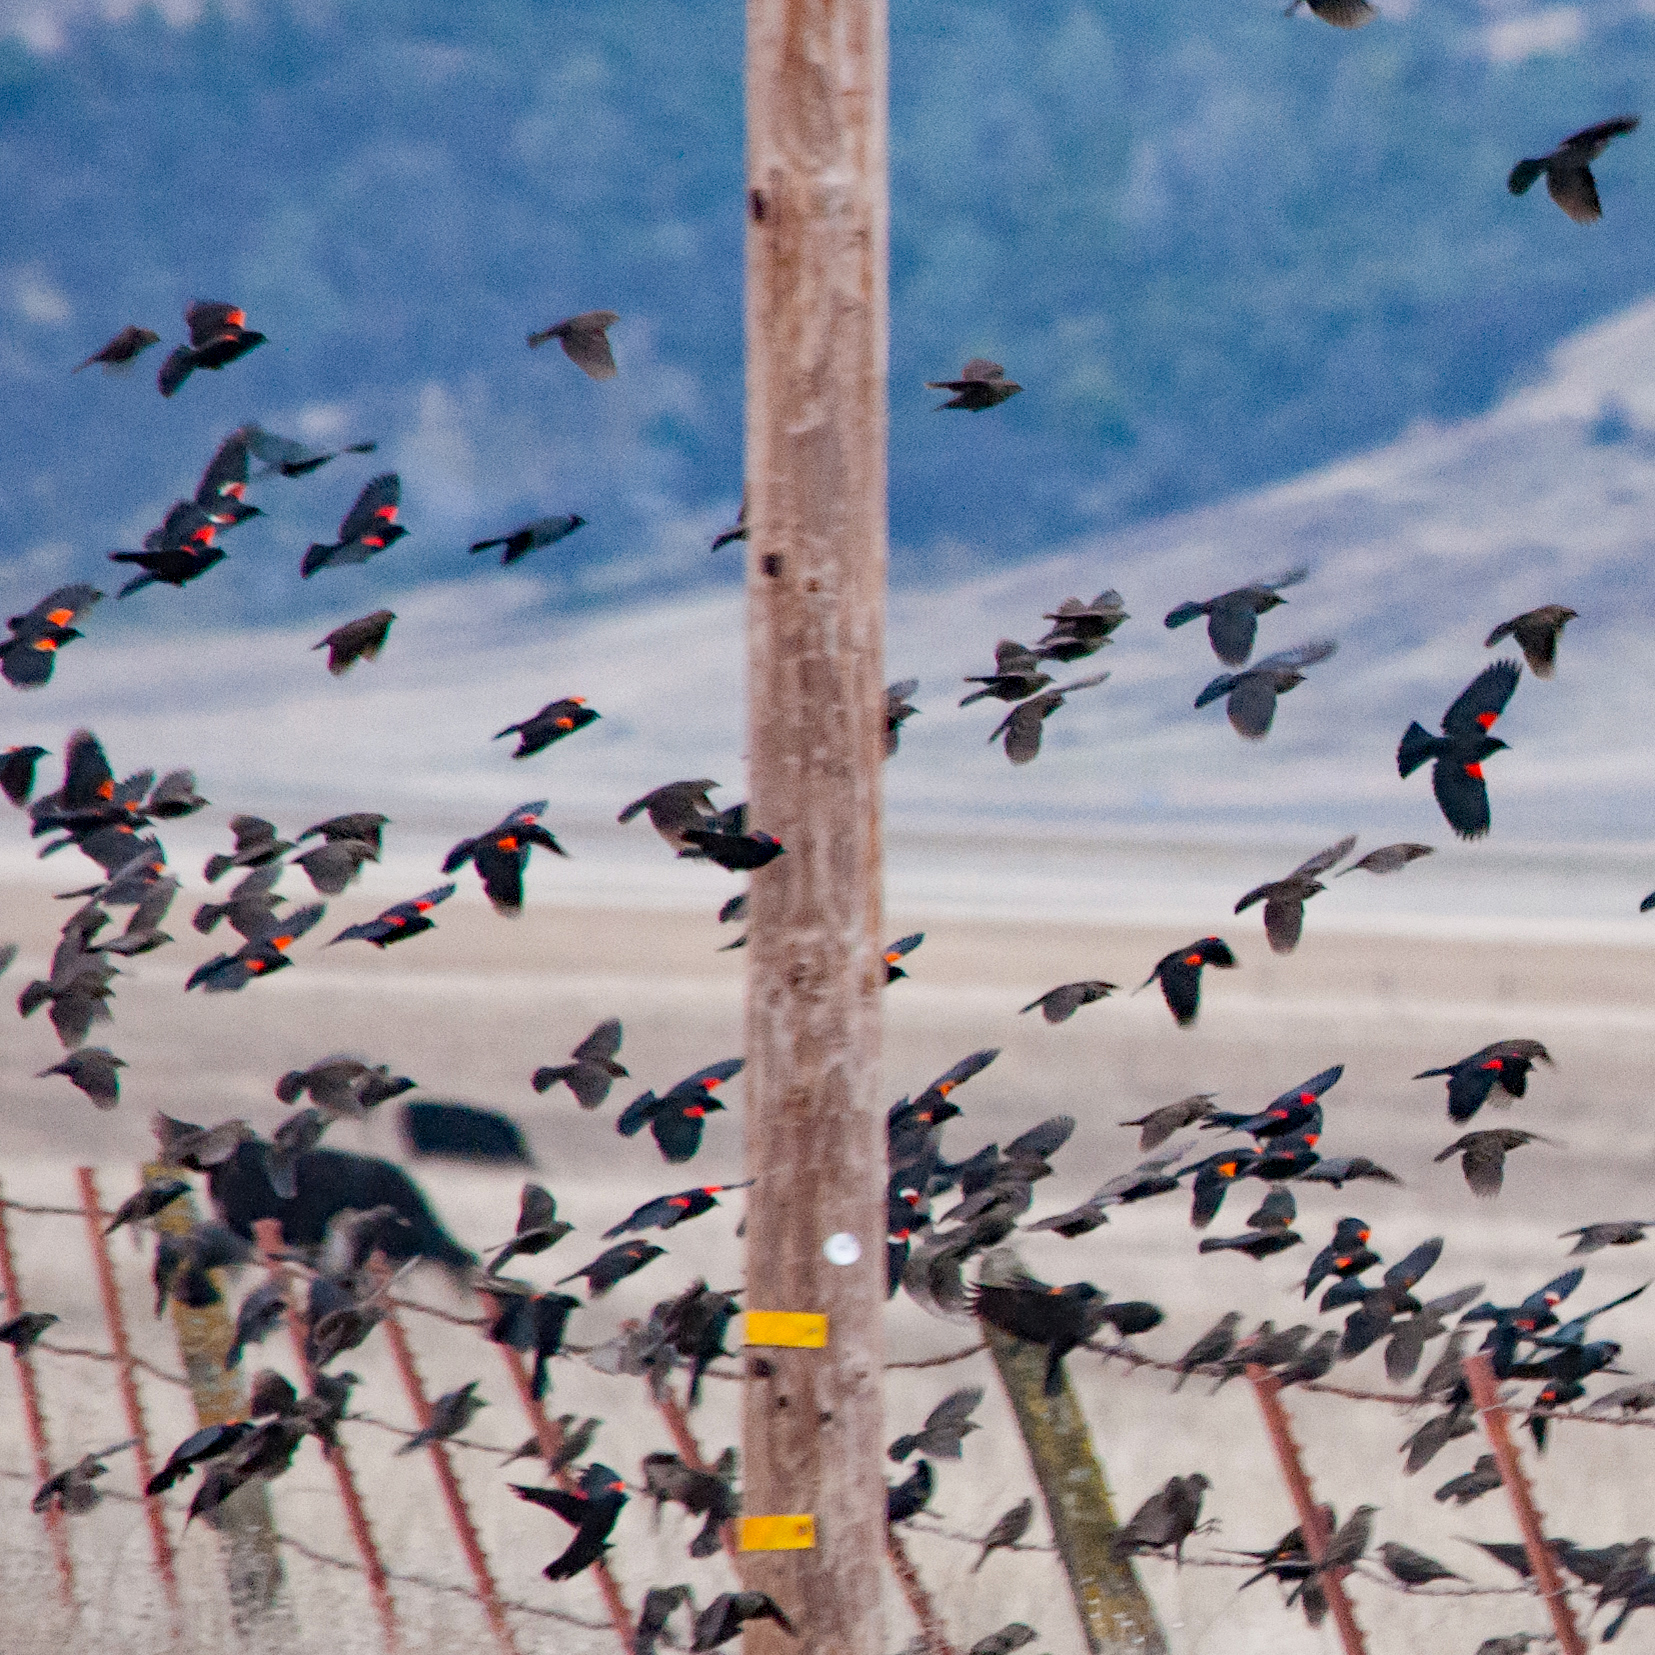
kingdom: Animalia
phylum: Chordata
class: Aves
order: Passeriformes
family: Icteridae
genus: Agelaius
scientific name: Agelaius tricolor
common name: Tricolored blackbird
